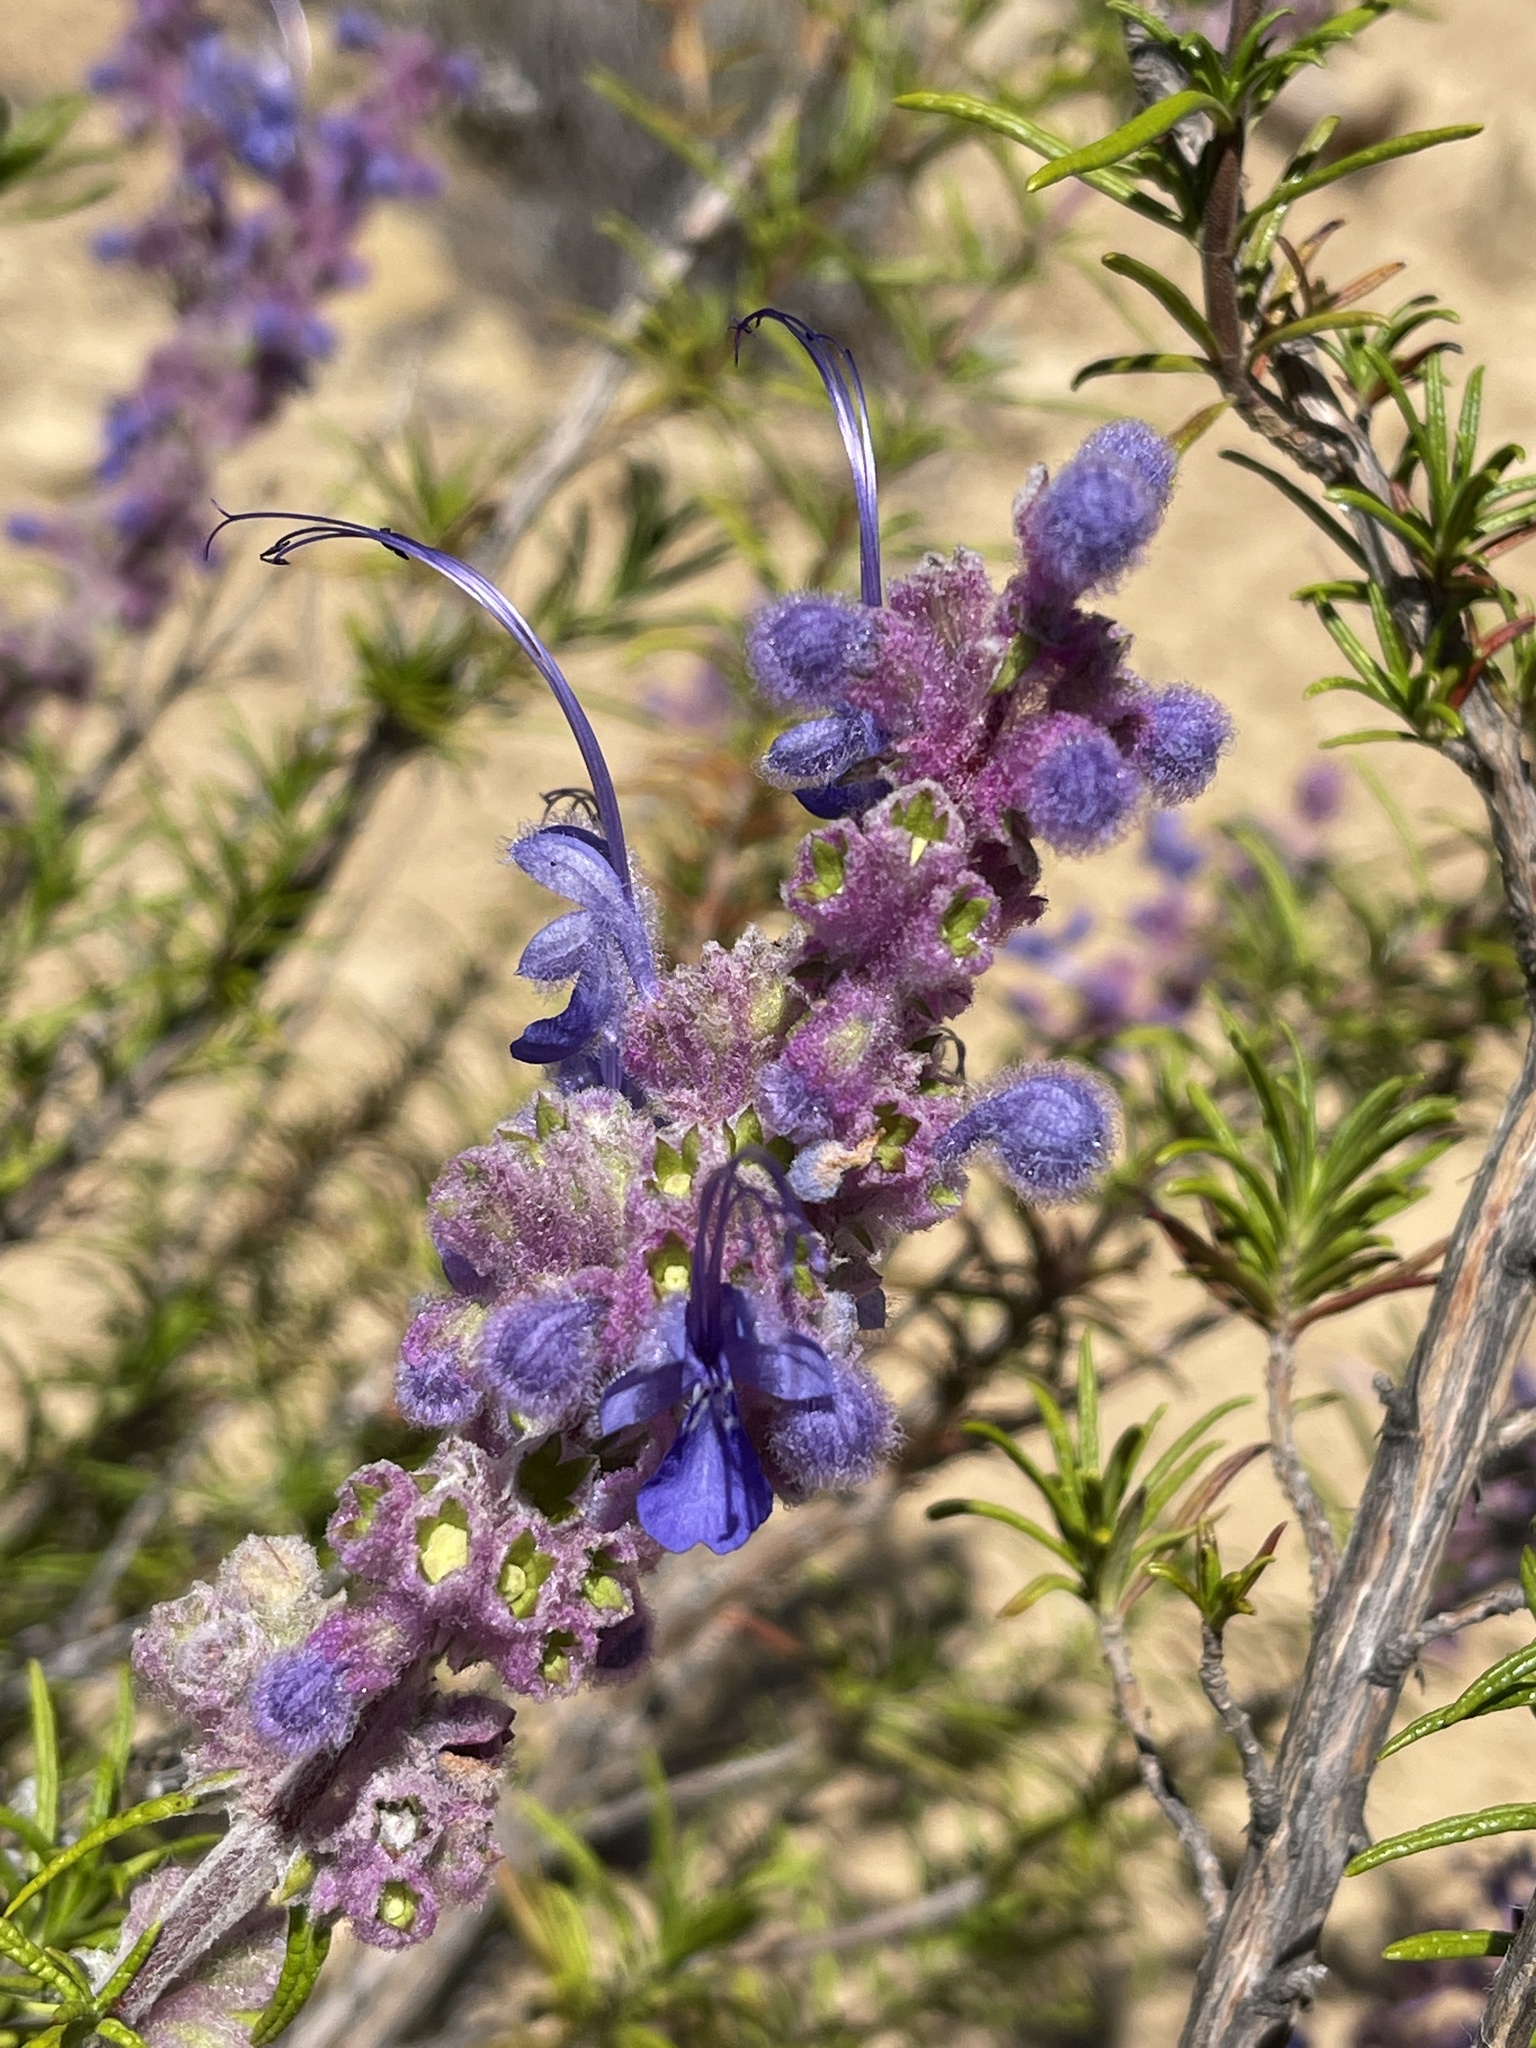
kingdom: Plantae
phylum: Tracheophyta
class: Magnoliopsida
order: Lamiales
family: Lamiaceae
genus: Trichostema
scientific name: Trichostema lanatum
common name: Woolly bluecurls
